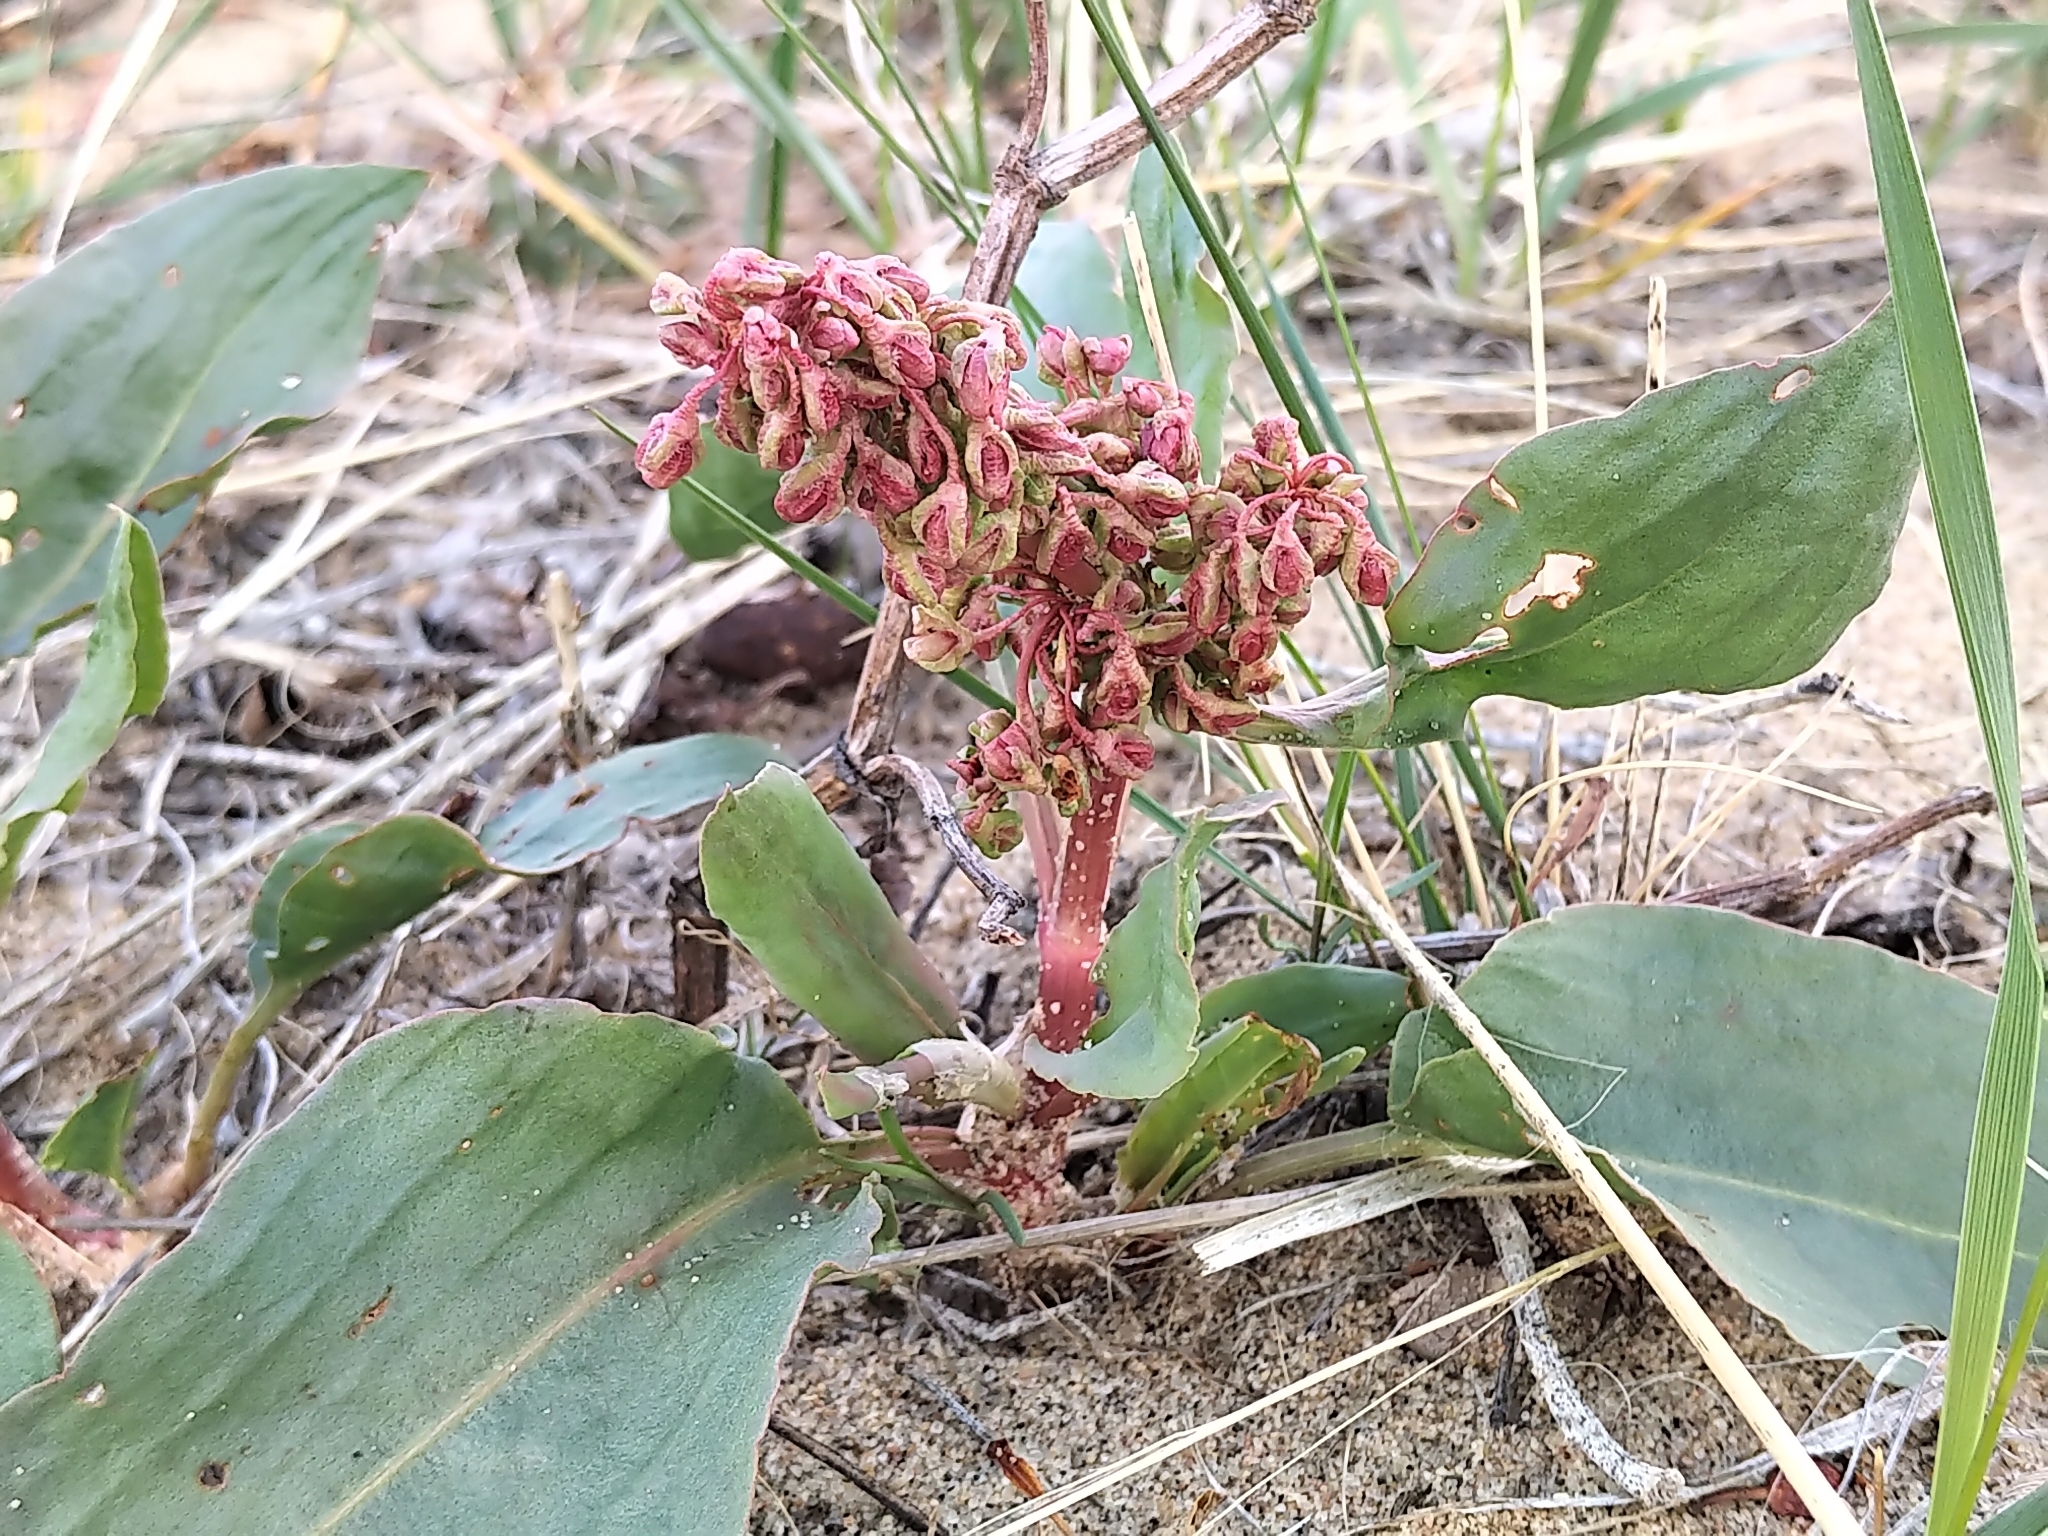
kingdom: Plantae
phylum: Tracheophyta
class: Magnoliopsida
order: Caryophyllales
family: Polygonaceae
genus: Rumex
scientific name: Rumex venosus
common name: Winged dock
